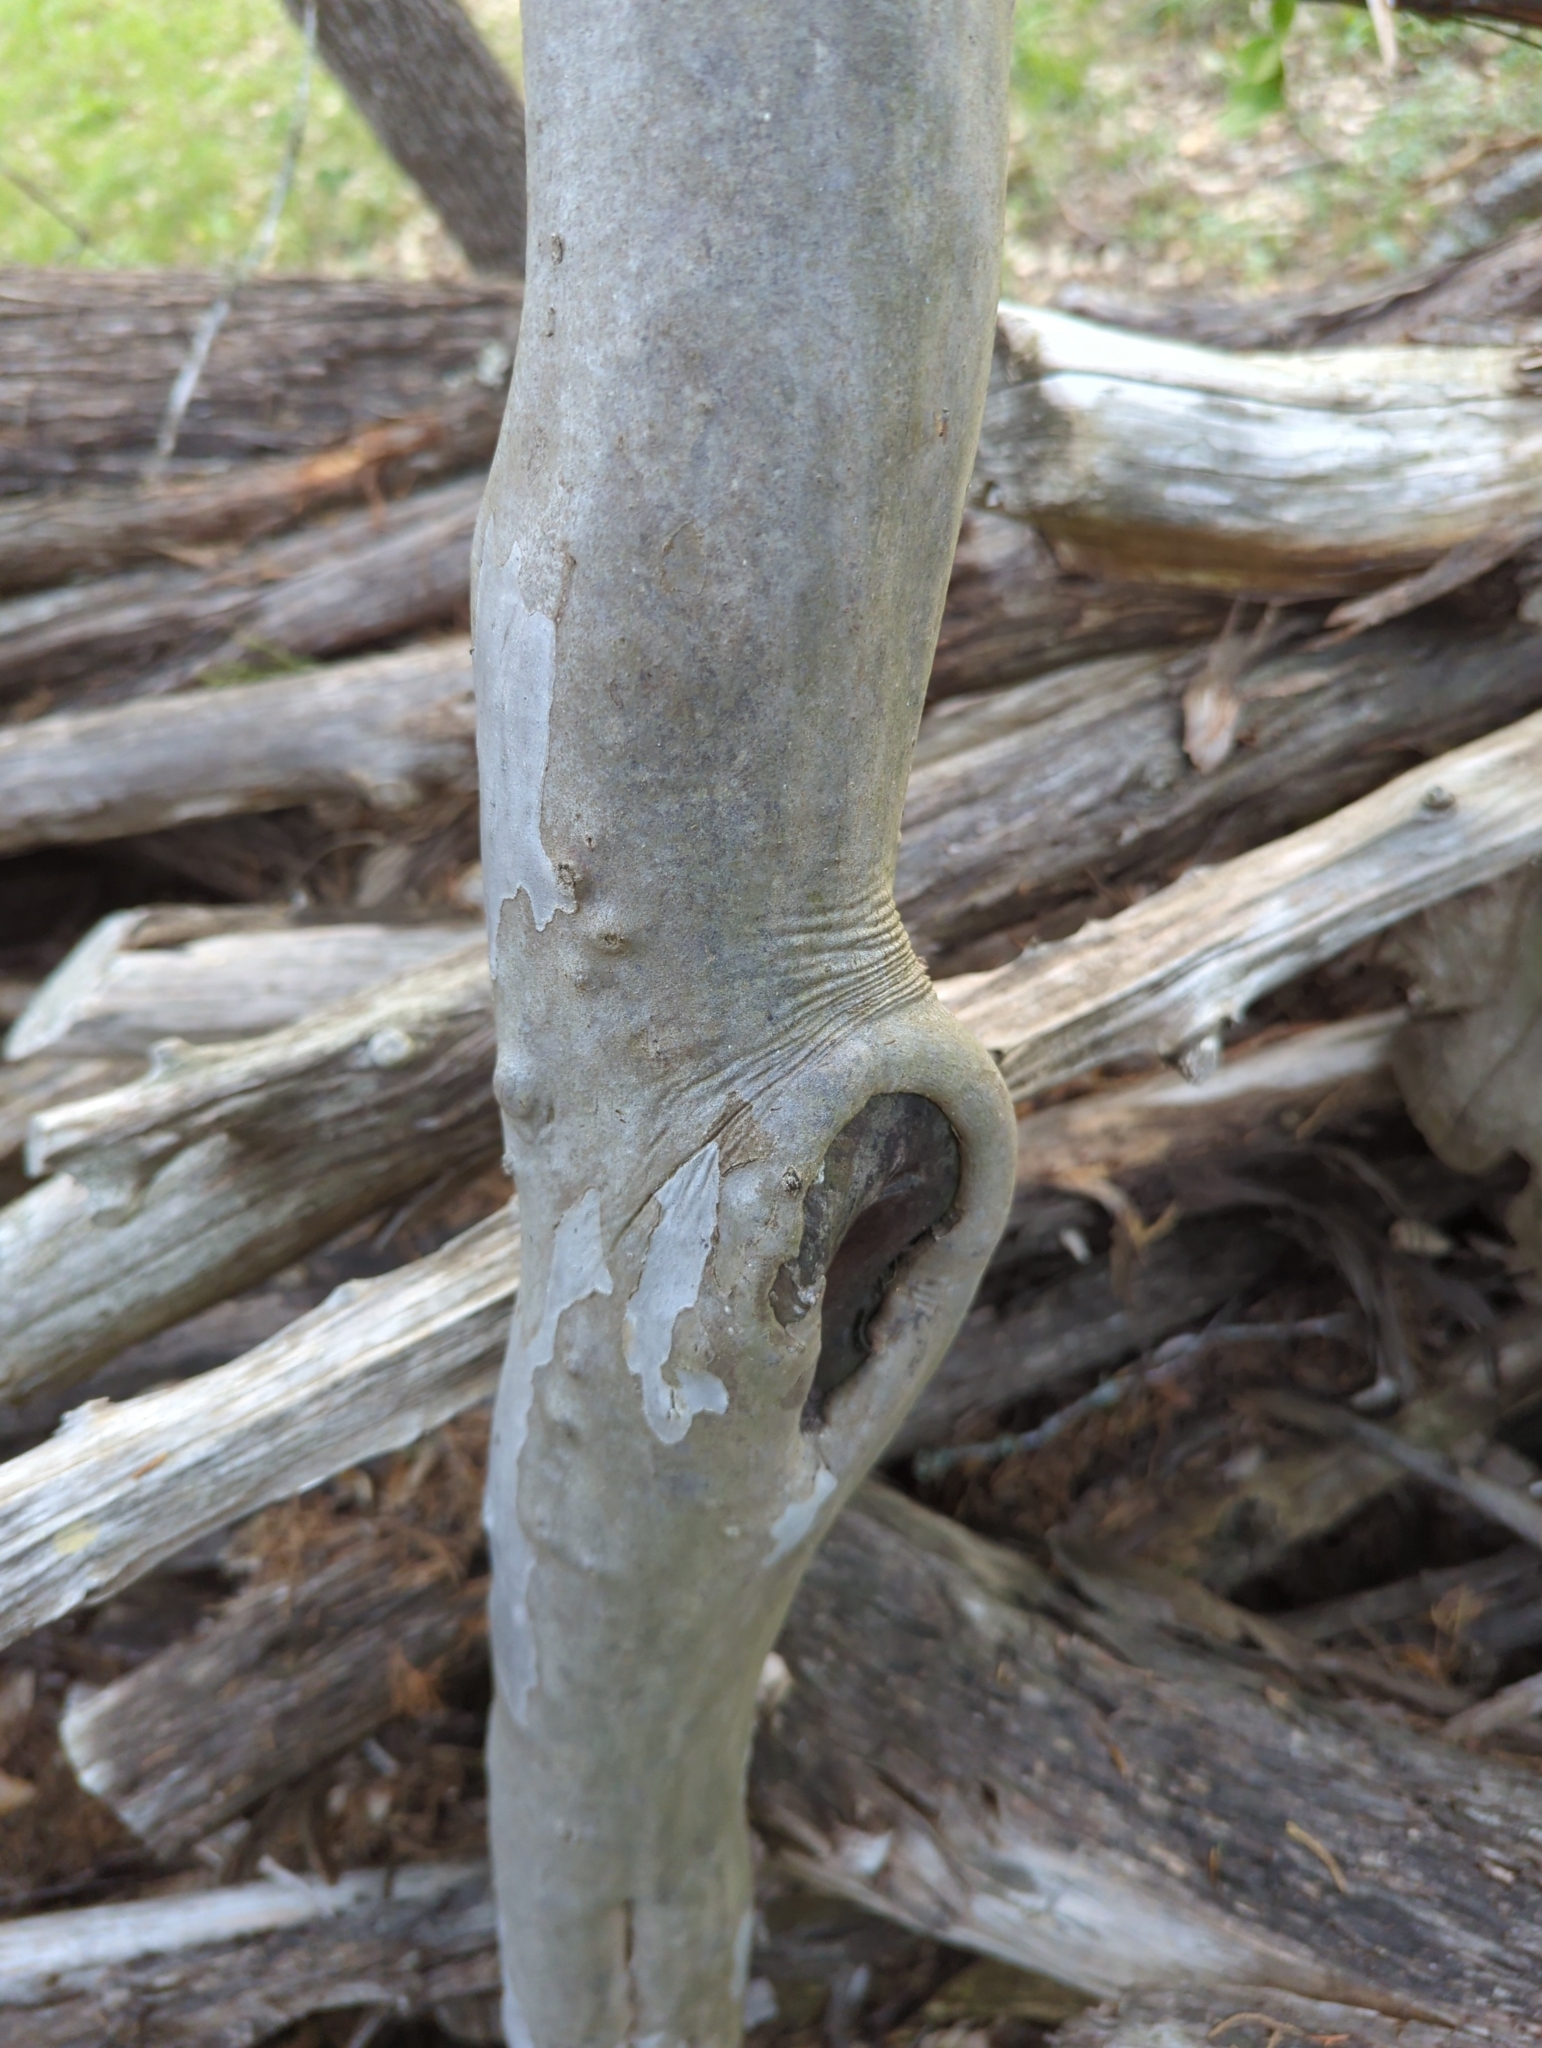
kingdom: Plantae
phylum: Tracheophyta
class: Magnoliopsida
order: Ericales
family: Ebenaceae
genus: Diospyros
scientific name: Diospyros texana
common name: Texas persimmon
